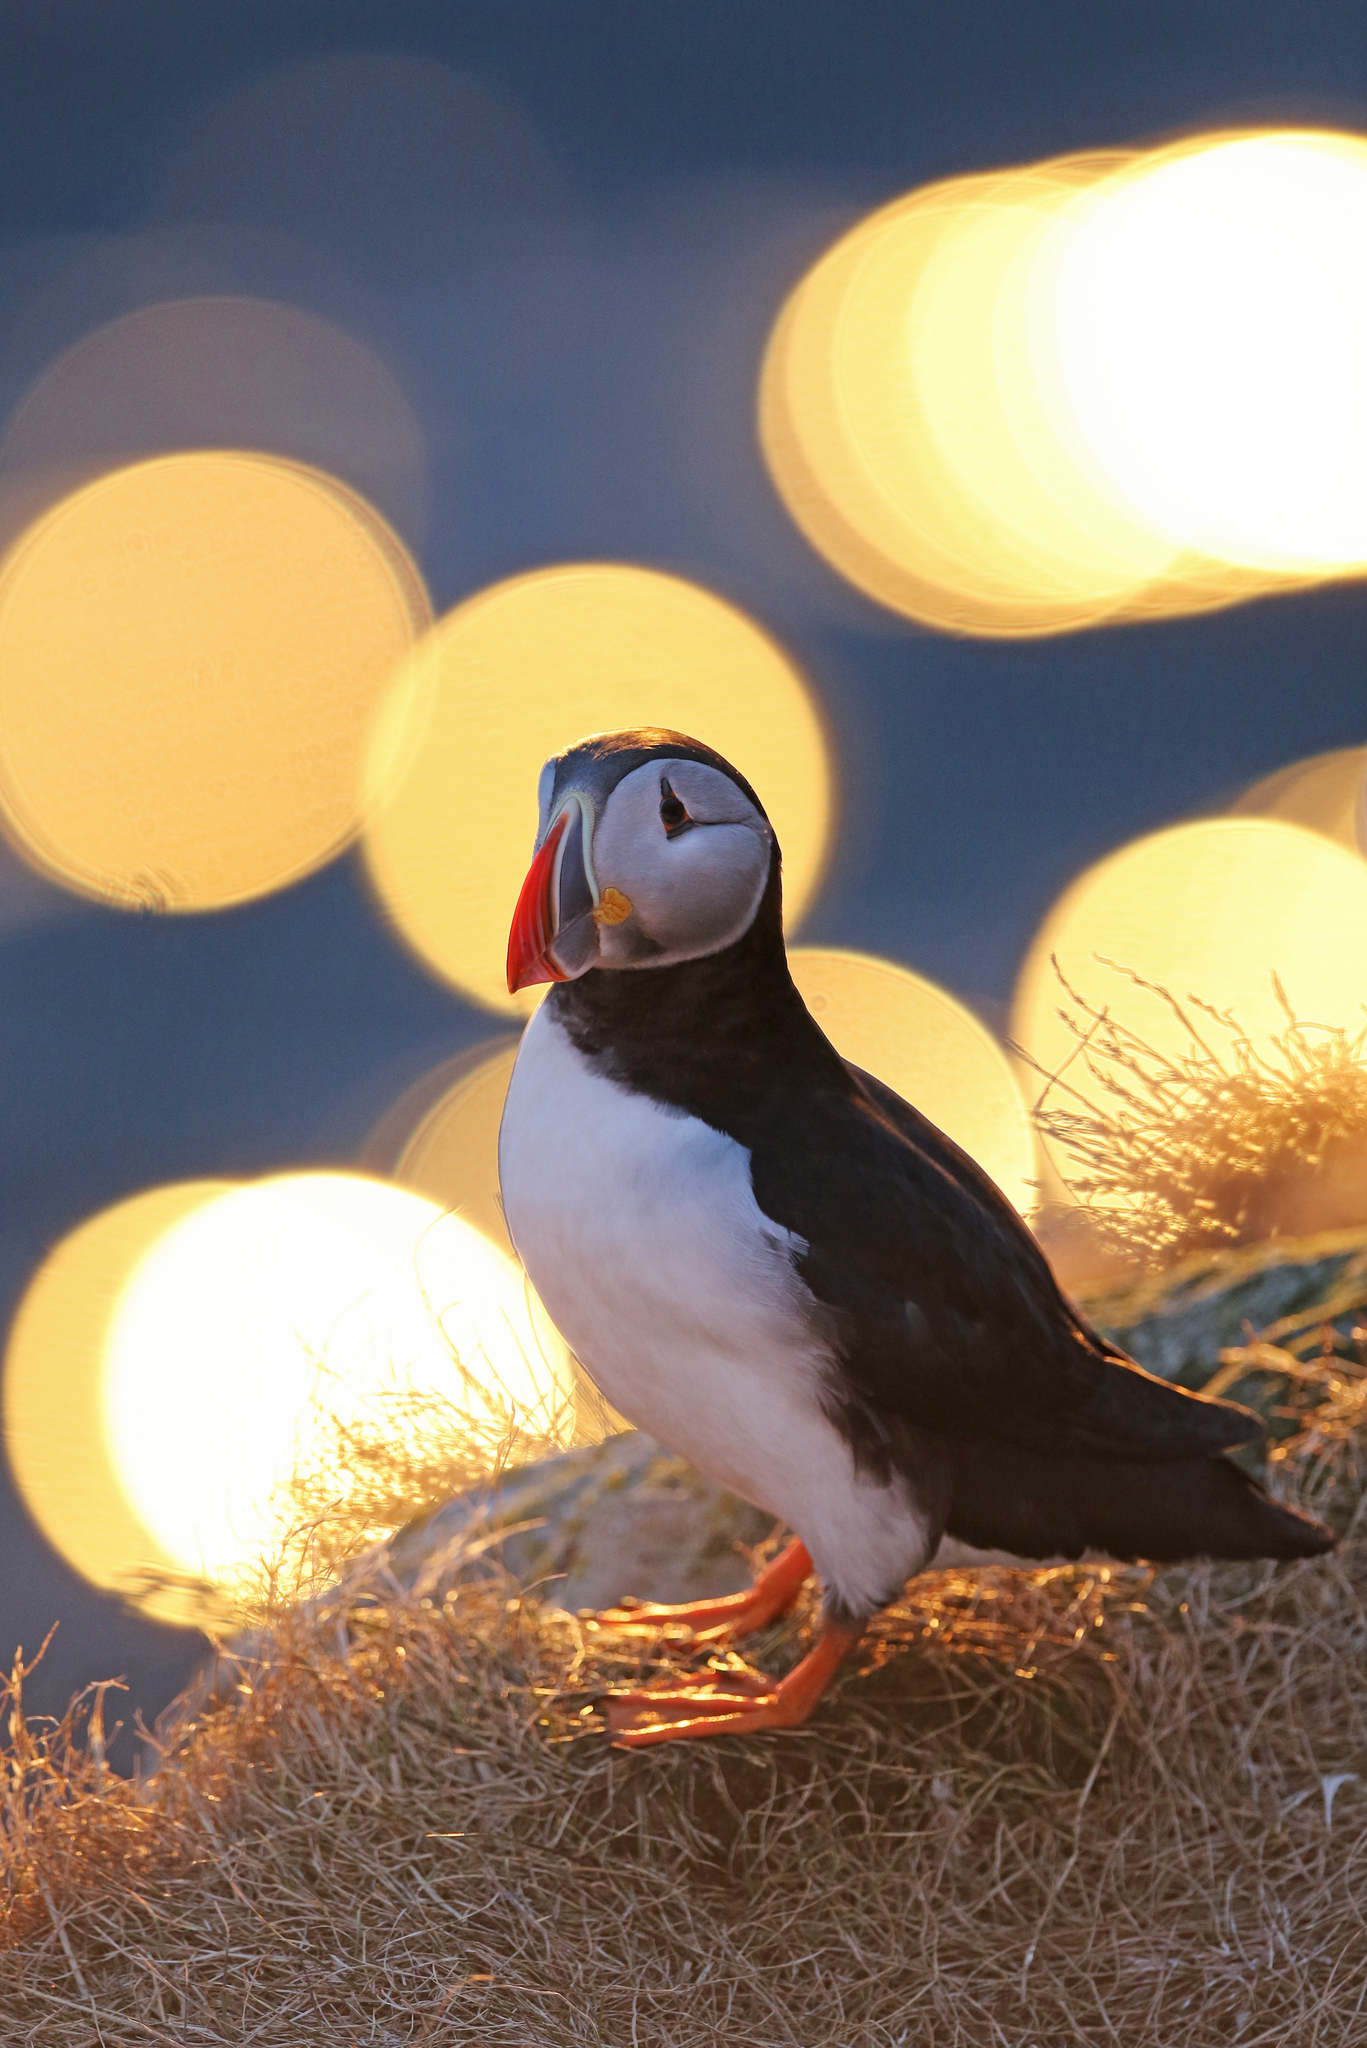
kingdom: Animalia
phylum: Chordata
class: Aves
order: Charadriiformes
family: Alcidae
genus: Fratercula
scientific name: Fratercula arctica
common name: Atlantic puffin
